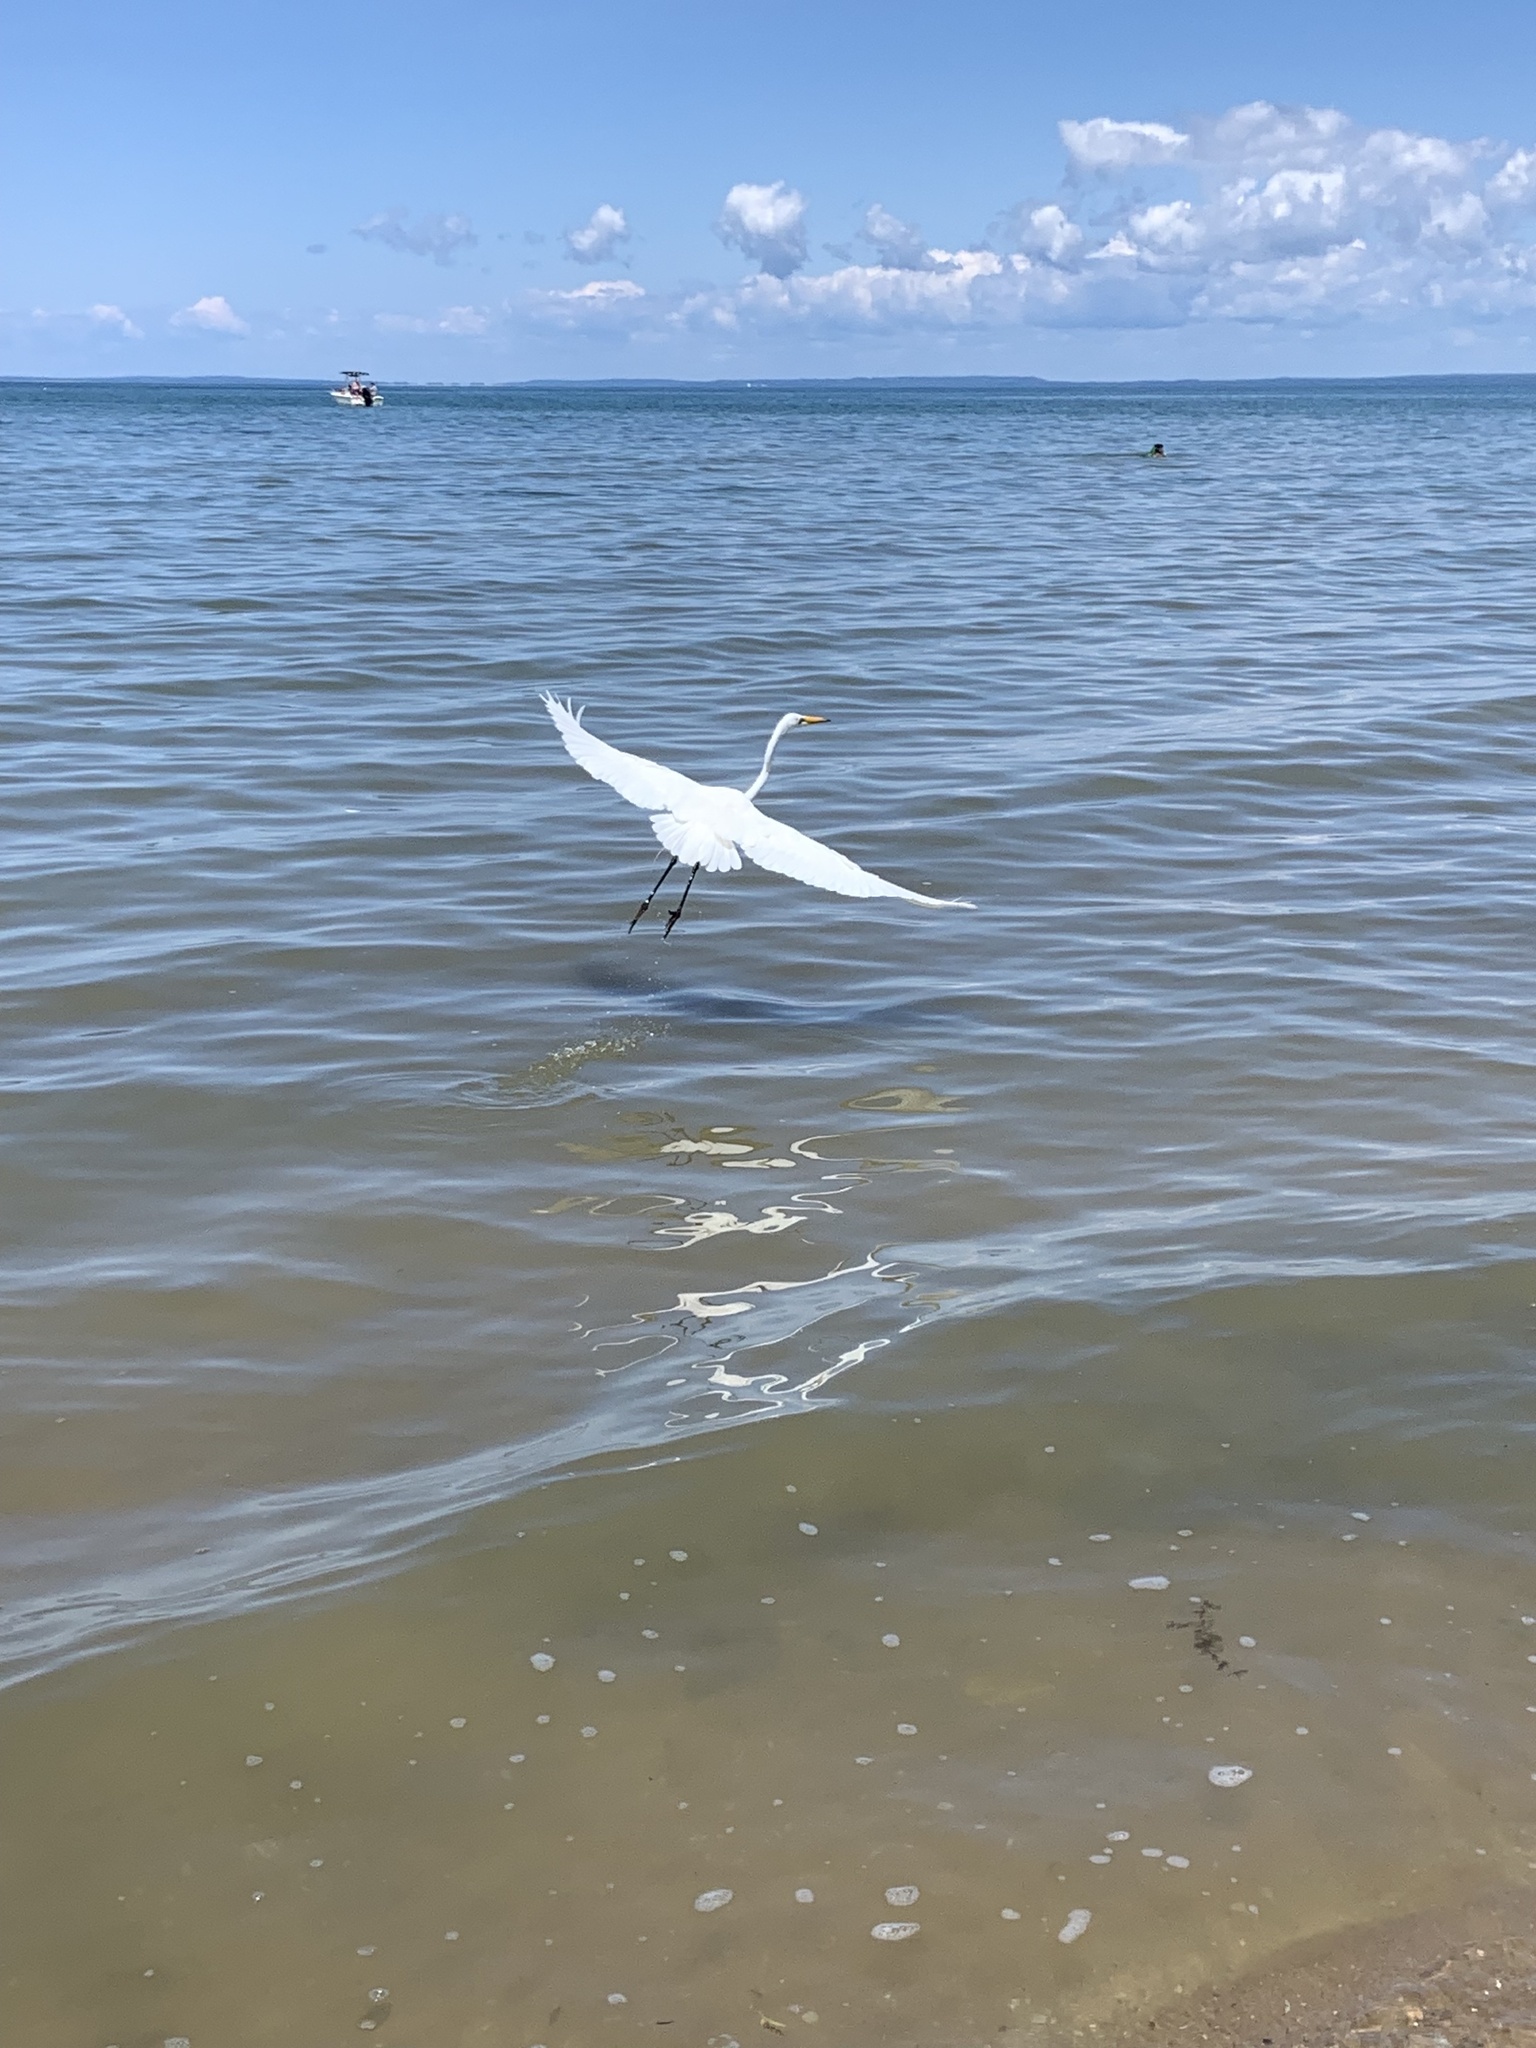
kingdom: Animalia
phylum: Chordata
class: Aves
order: Pelecaniformes
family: Ardeidae
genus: Ardea
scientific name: Ardea alba
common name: Great egret
